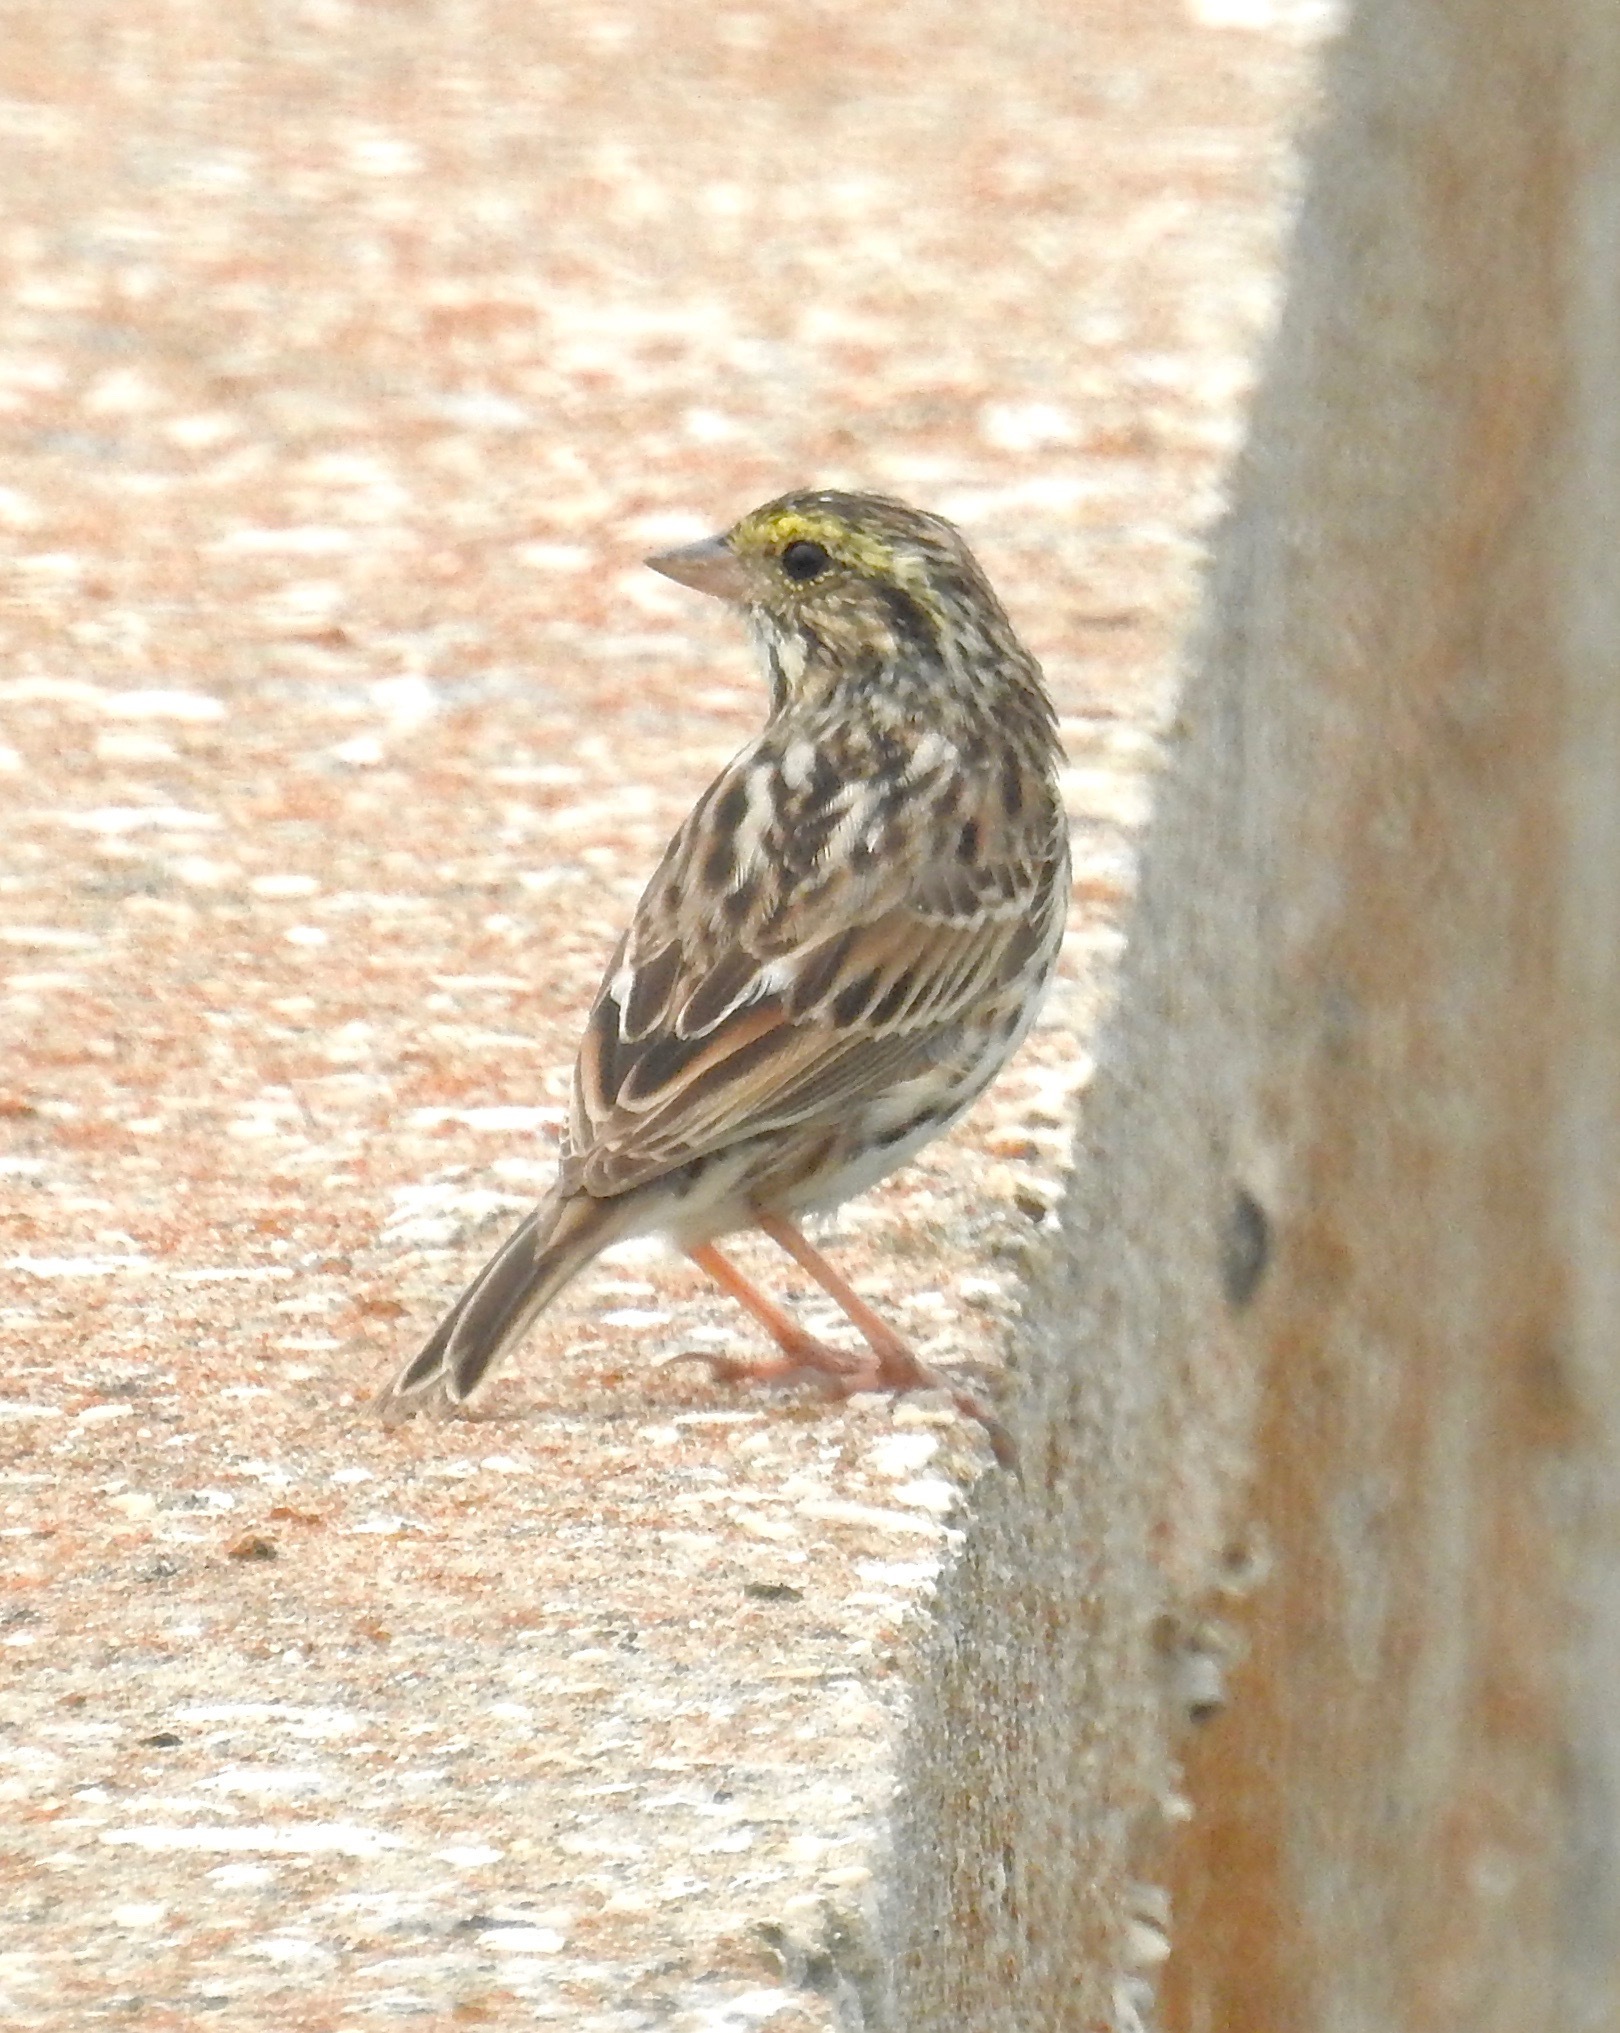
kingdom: Animalia
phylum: Chordata
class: Aves
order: Passeriformes
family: Passerellidae
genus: Passerculus
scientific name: Passerculus sandwichensis
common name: Savannah sparrow
